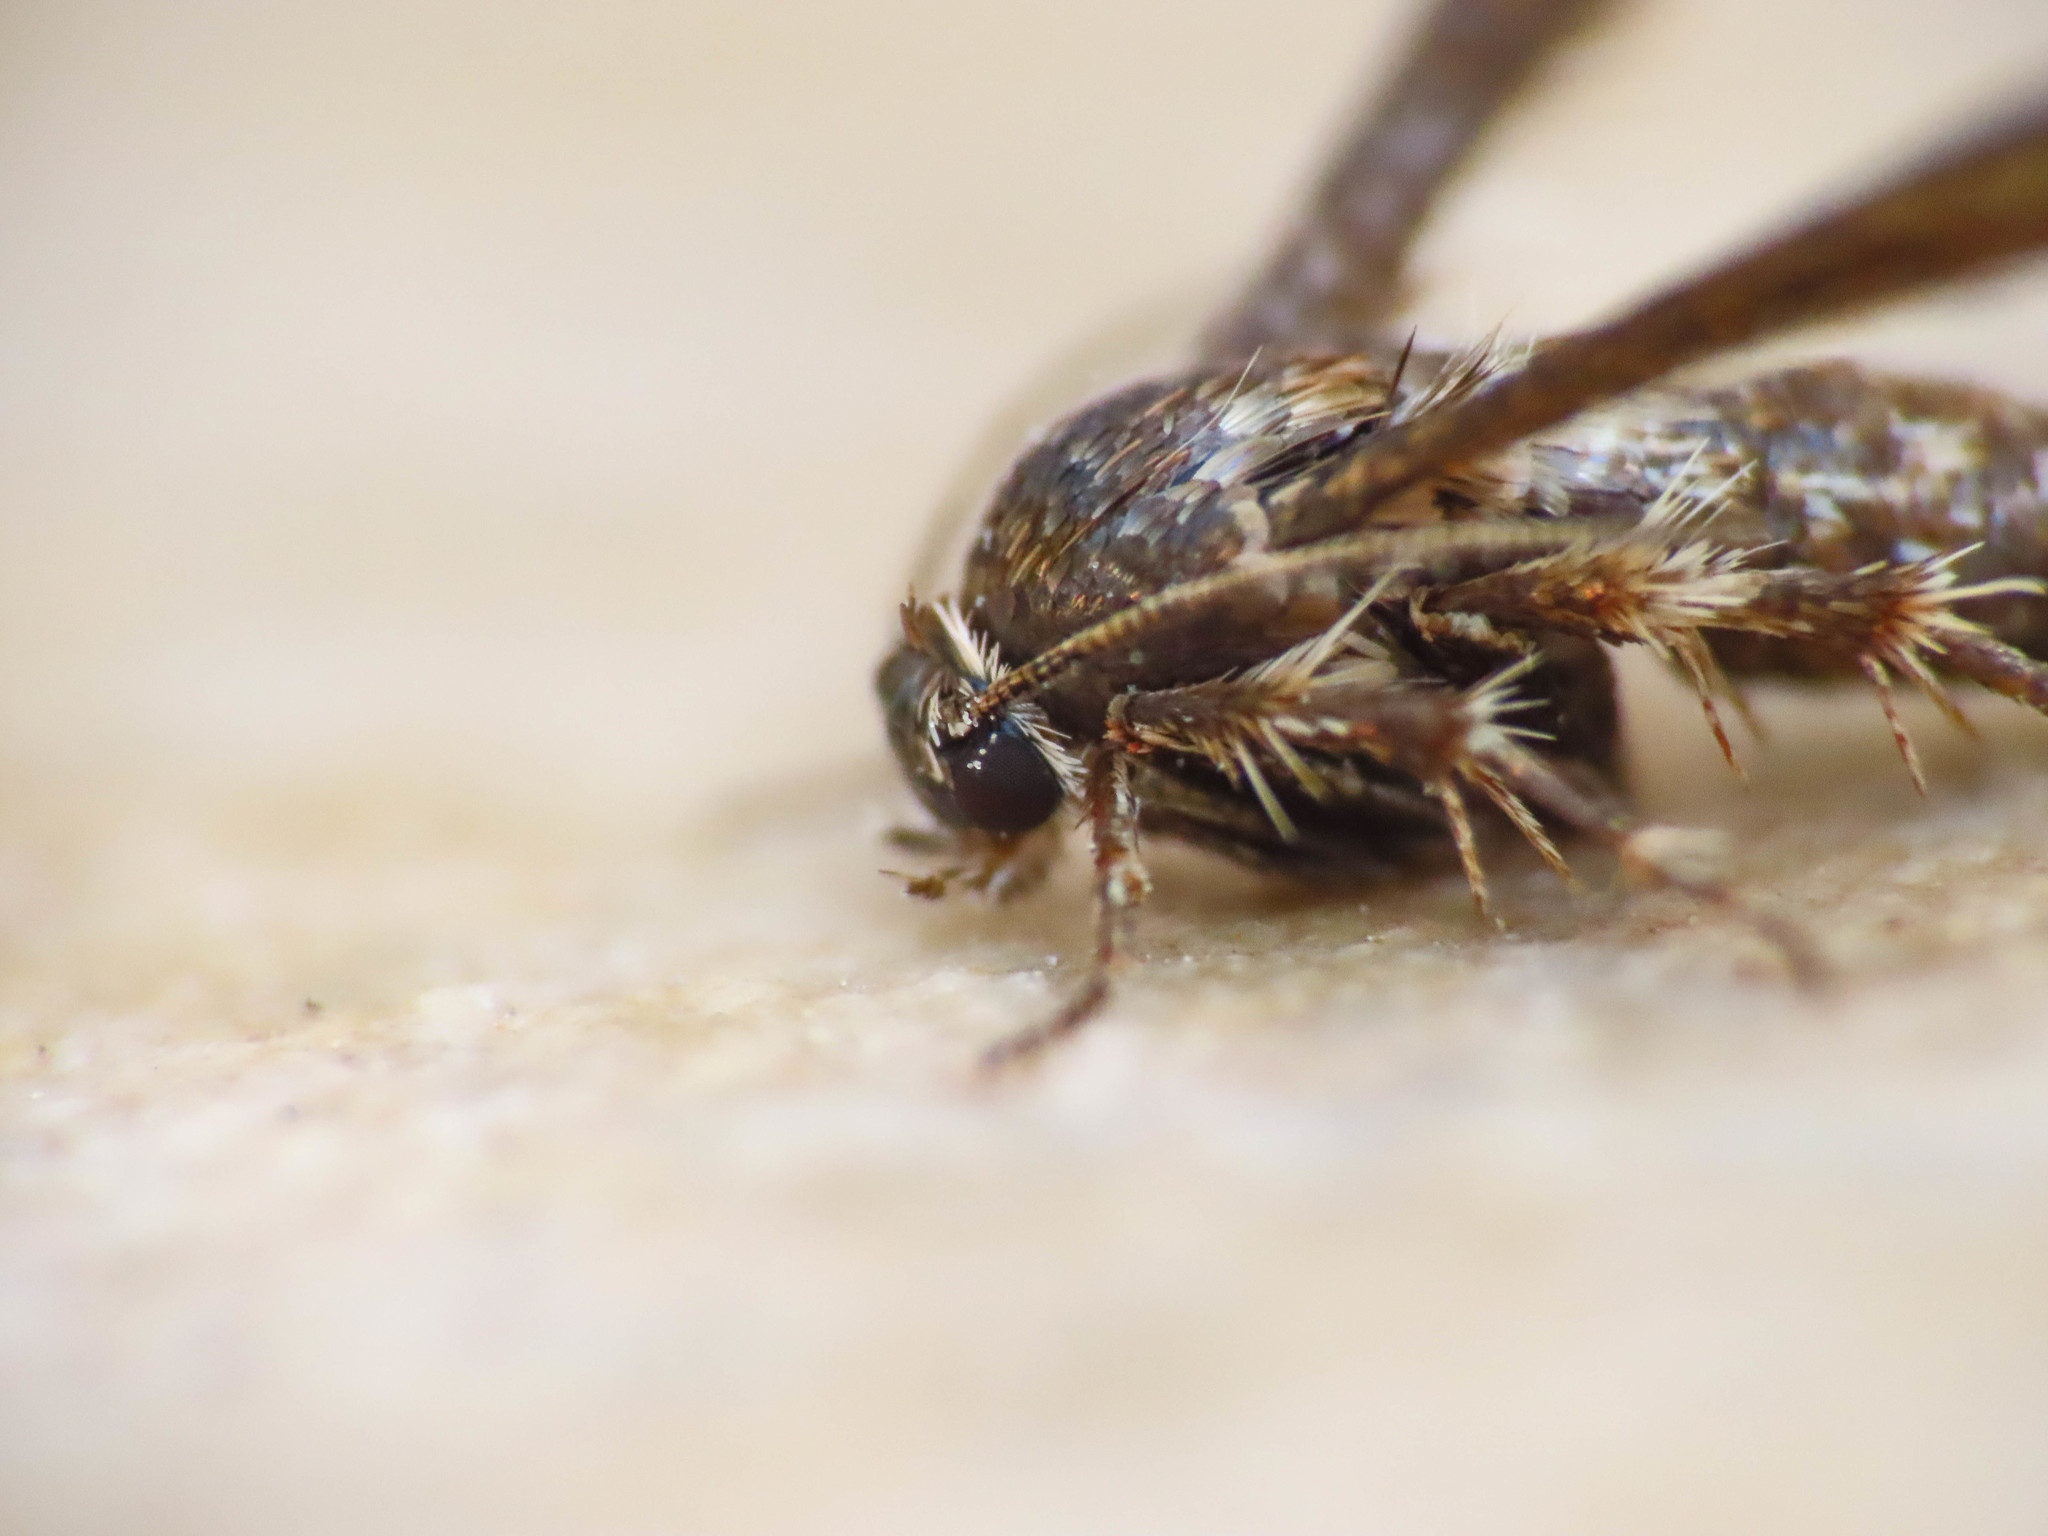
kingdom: Animalia
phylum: Arthropoda
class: Insecta
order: Lepidoptera
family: Sesiidae
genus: Microsphecia
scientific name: Microsphecia tineiformis
